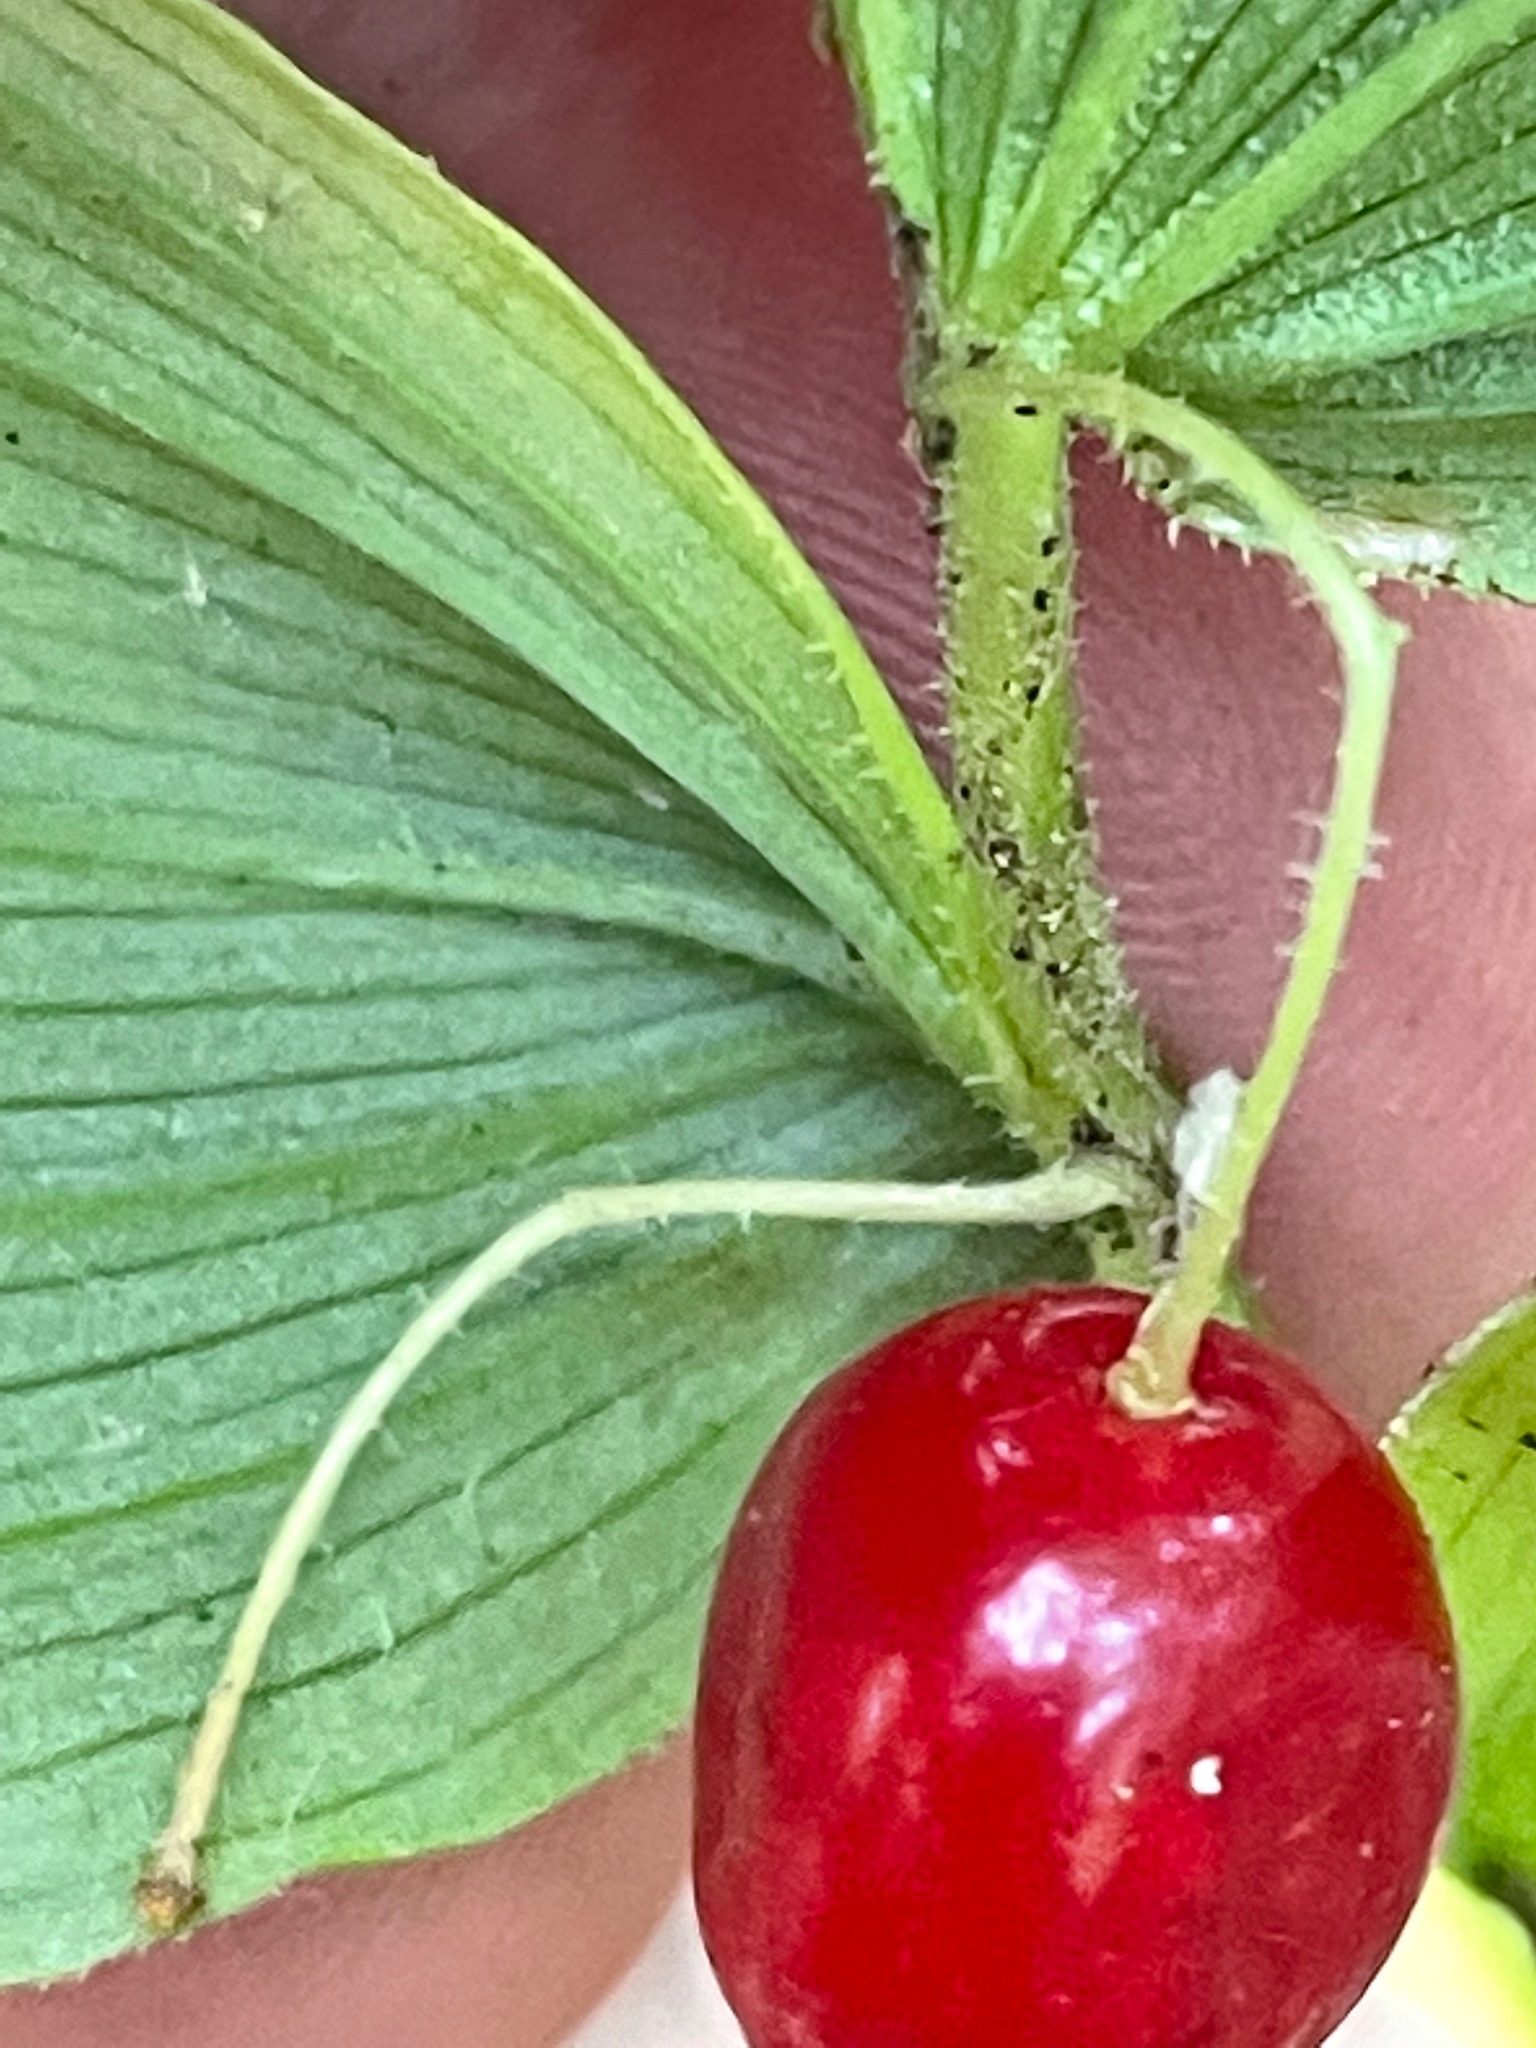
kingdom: Plantae
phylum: Tracheophyta
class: Liliopsida
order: Liliales
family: Liliaceae
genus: Streptopus
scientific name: Streptopus lanceolatus
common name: Rose mandarin
